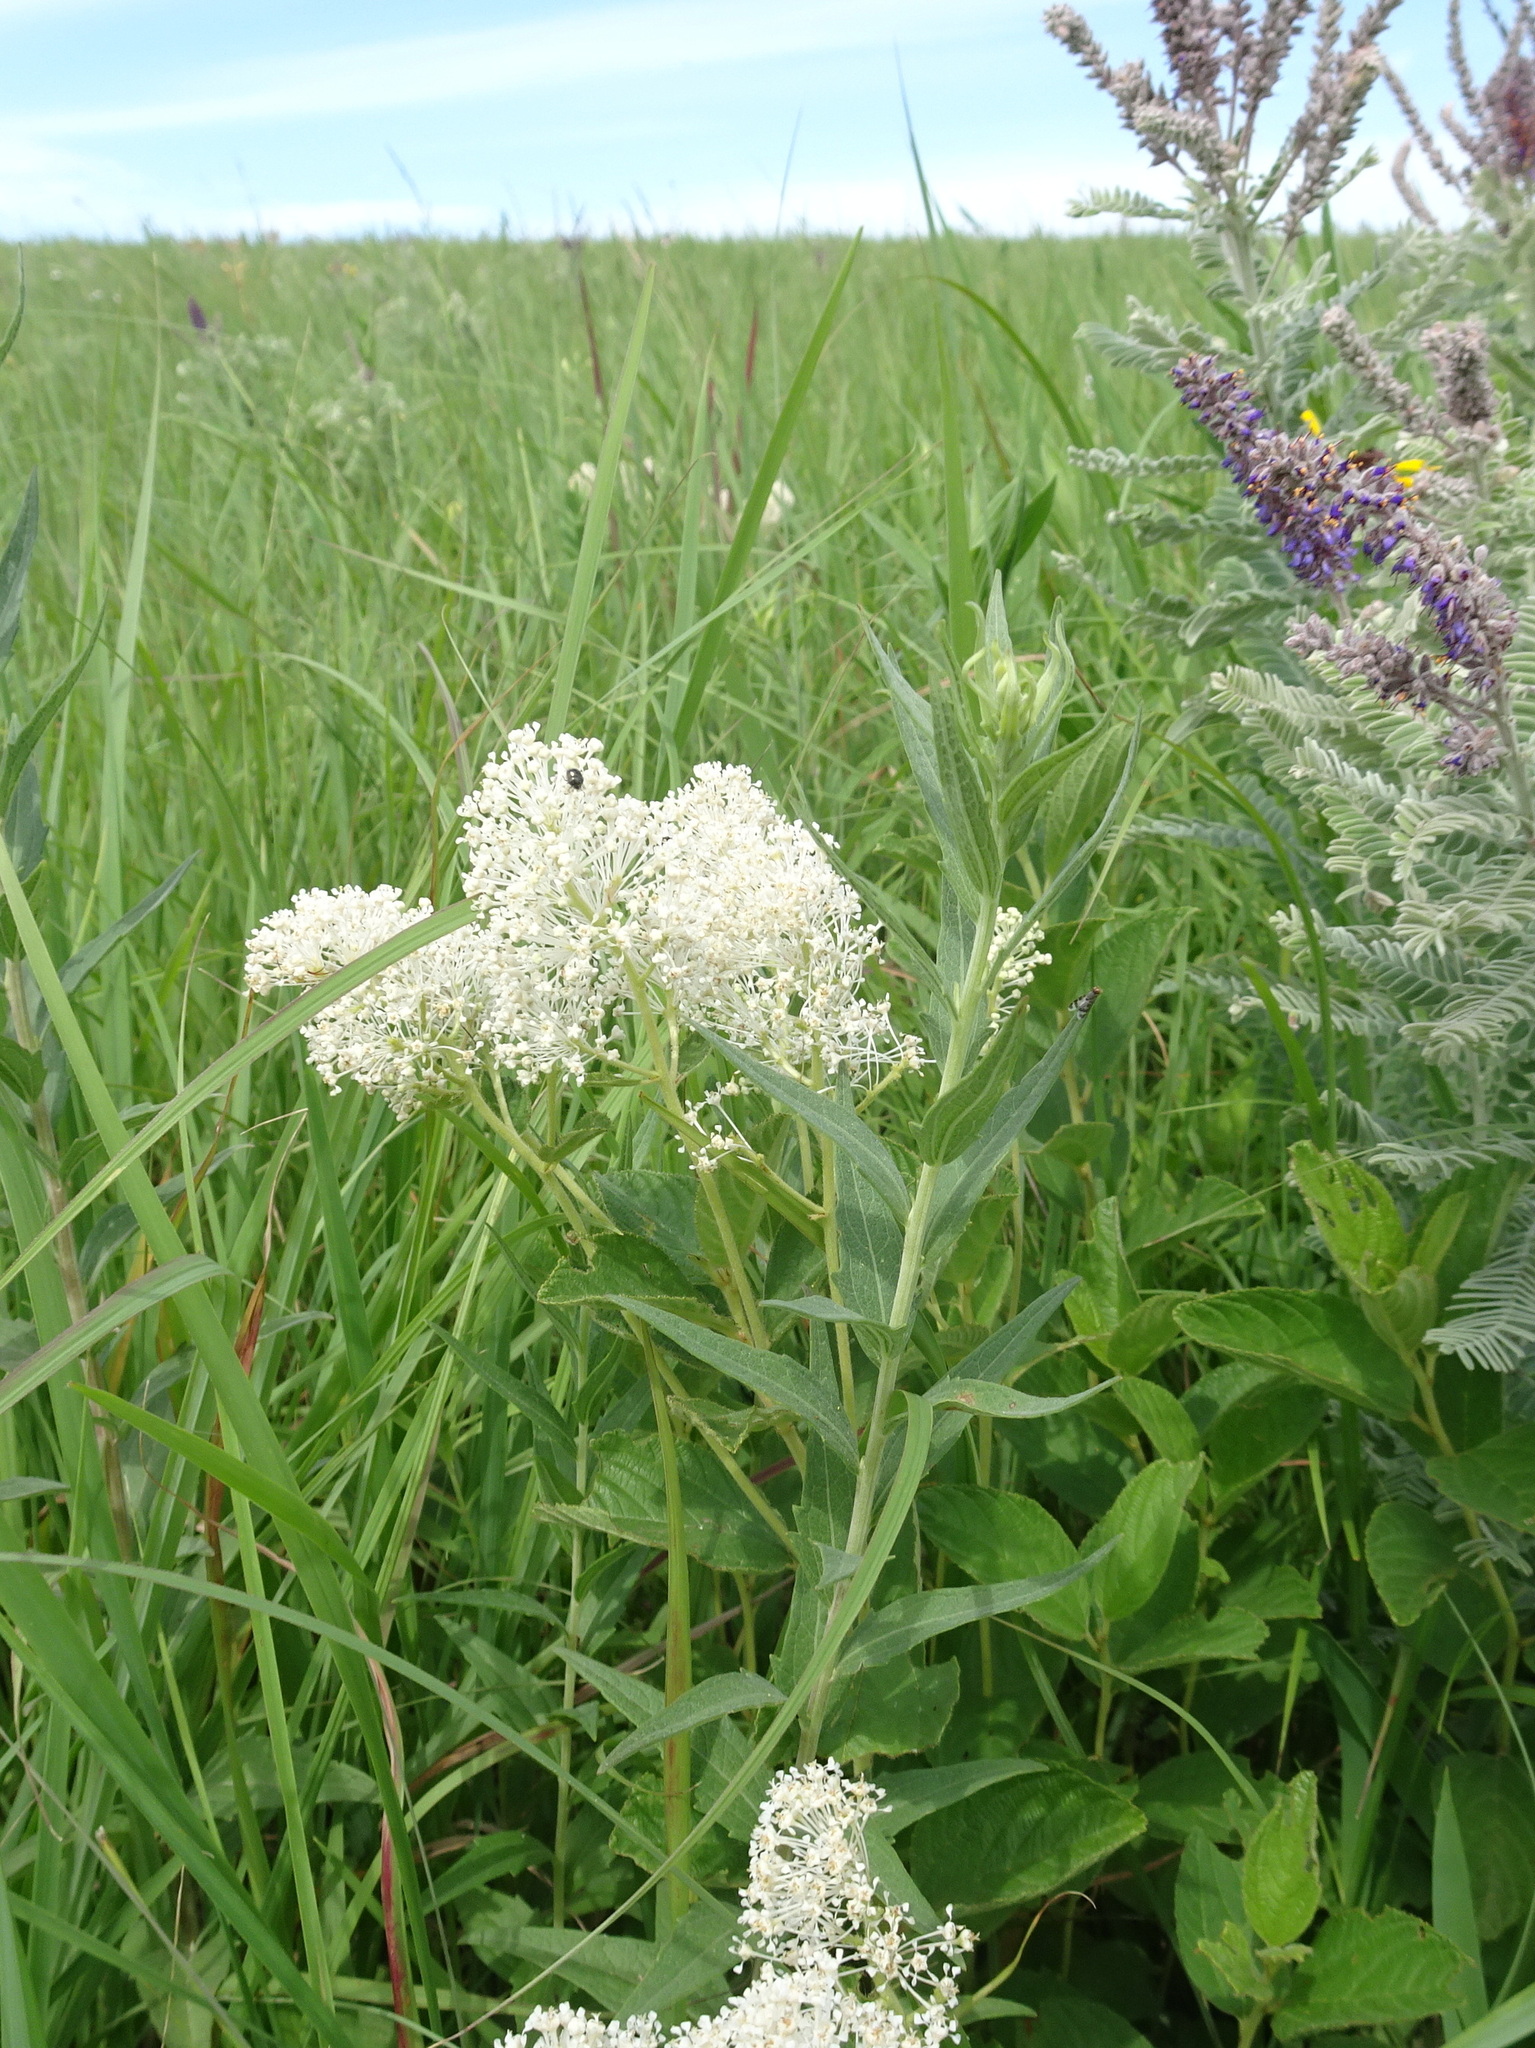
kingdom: Plantae
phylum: Tracheophyta
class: Magnoliopsida
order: Rosales
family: Rhamnaceae
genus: Ceanothus
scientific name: Ceanothus americanus
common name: Redroot
